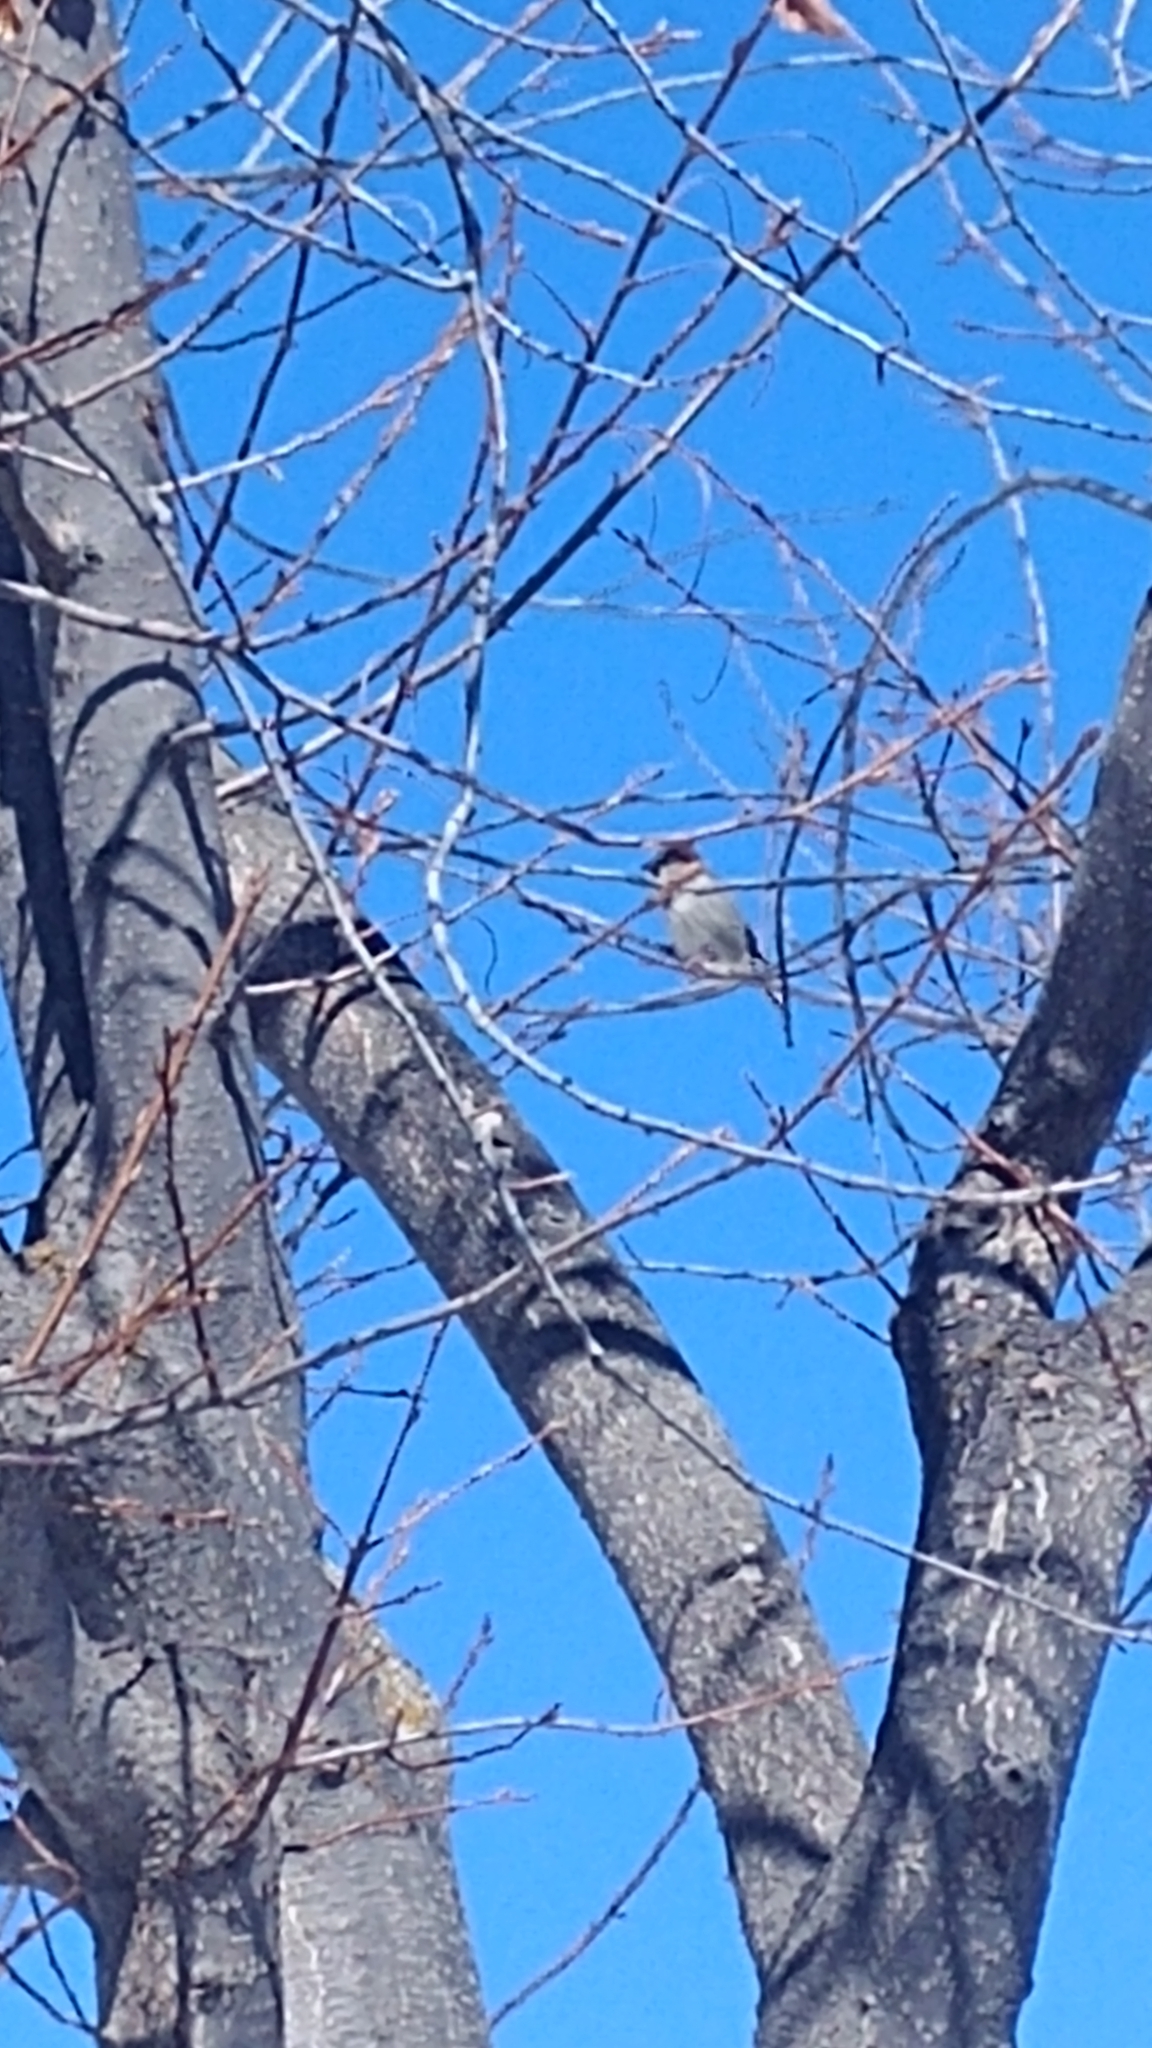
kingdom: Animalia
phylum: Chordata
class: Aves
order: Passeriformes
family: Passeridae
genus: Passer
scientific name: Passer domesticus
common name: House sparrow
